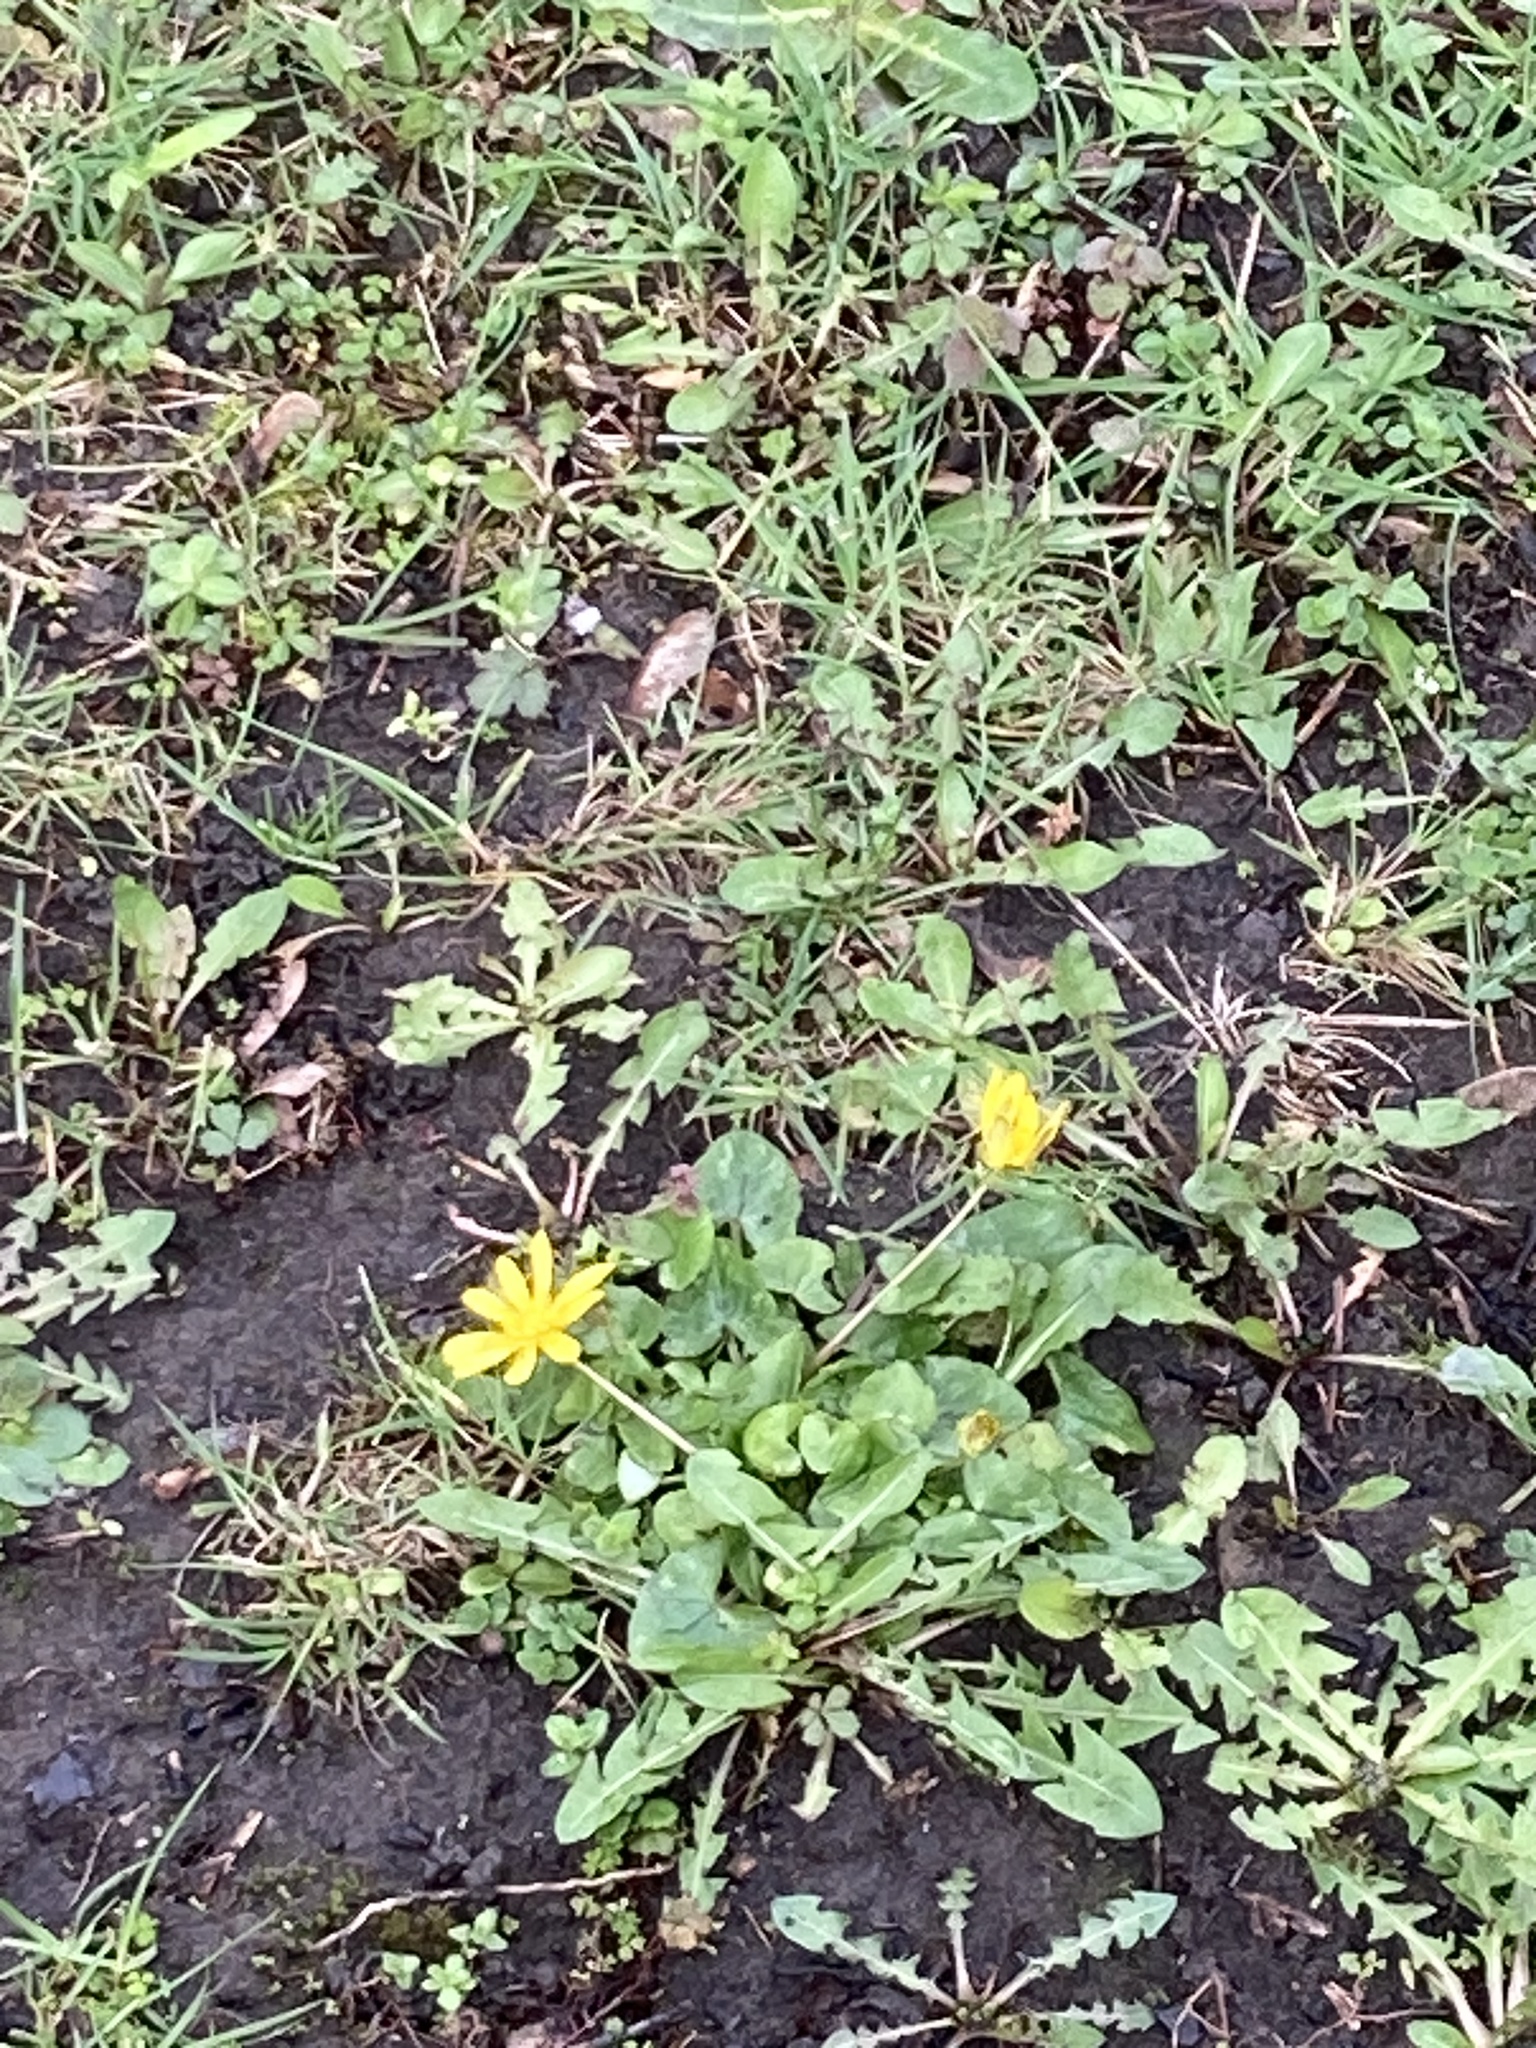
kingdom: Plantae
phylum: Tracheophyta
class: Magnoliopsida
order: Ranunculales
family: Ranunculaceae
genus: Ficaria
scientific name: Ficaria verna
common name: Lesser celandine
